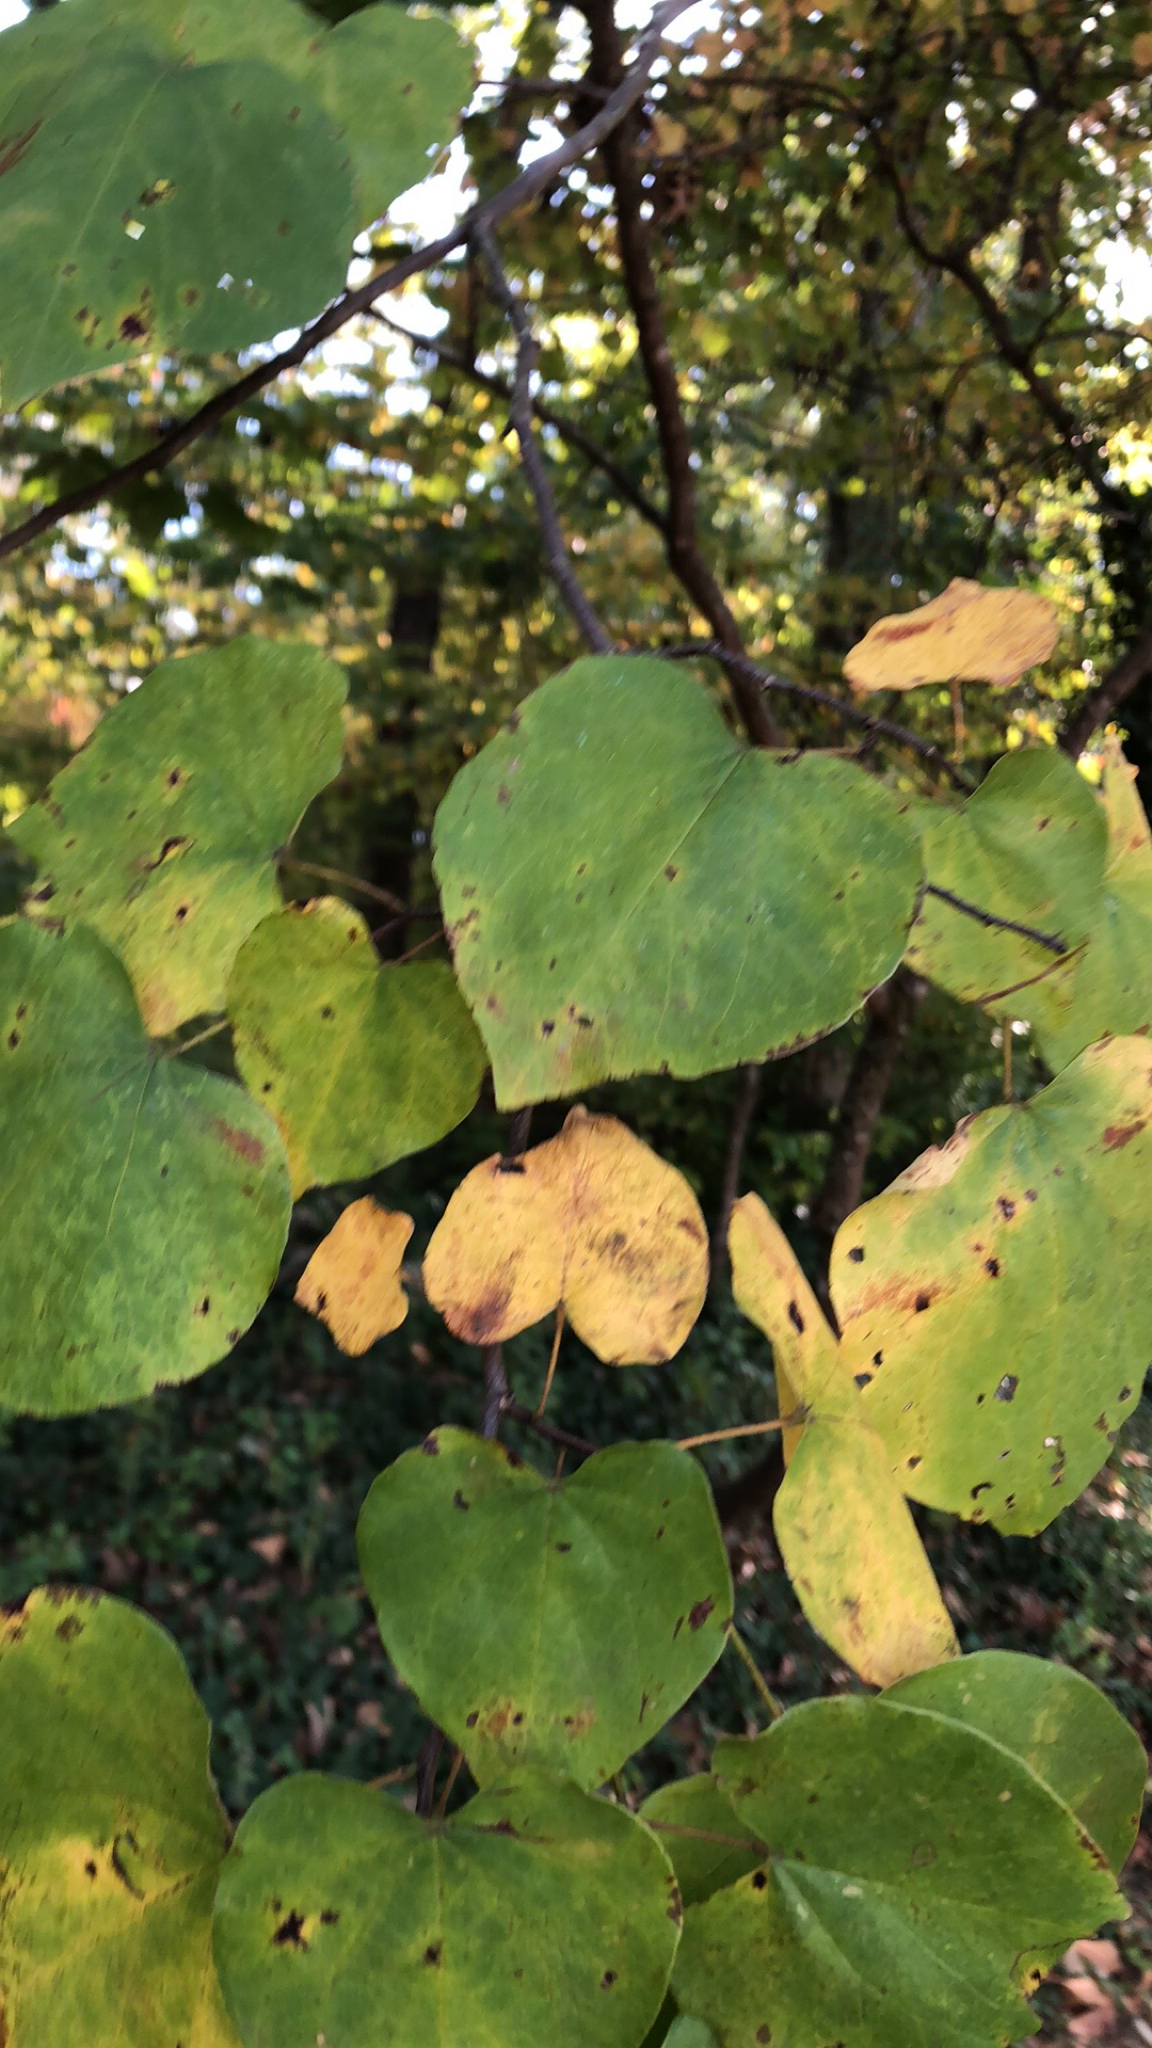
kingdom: Plantae
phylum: Tracheophyta
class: Magnoliopsida
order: Fabales
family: Fabaceae
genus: Cercis
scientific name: Cercis canadensis
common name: Eastern redbud
